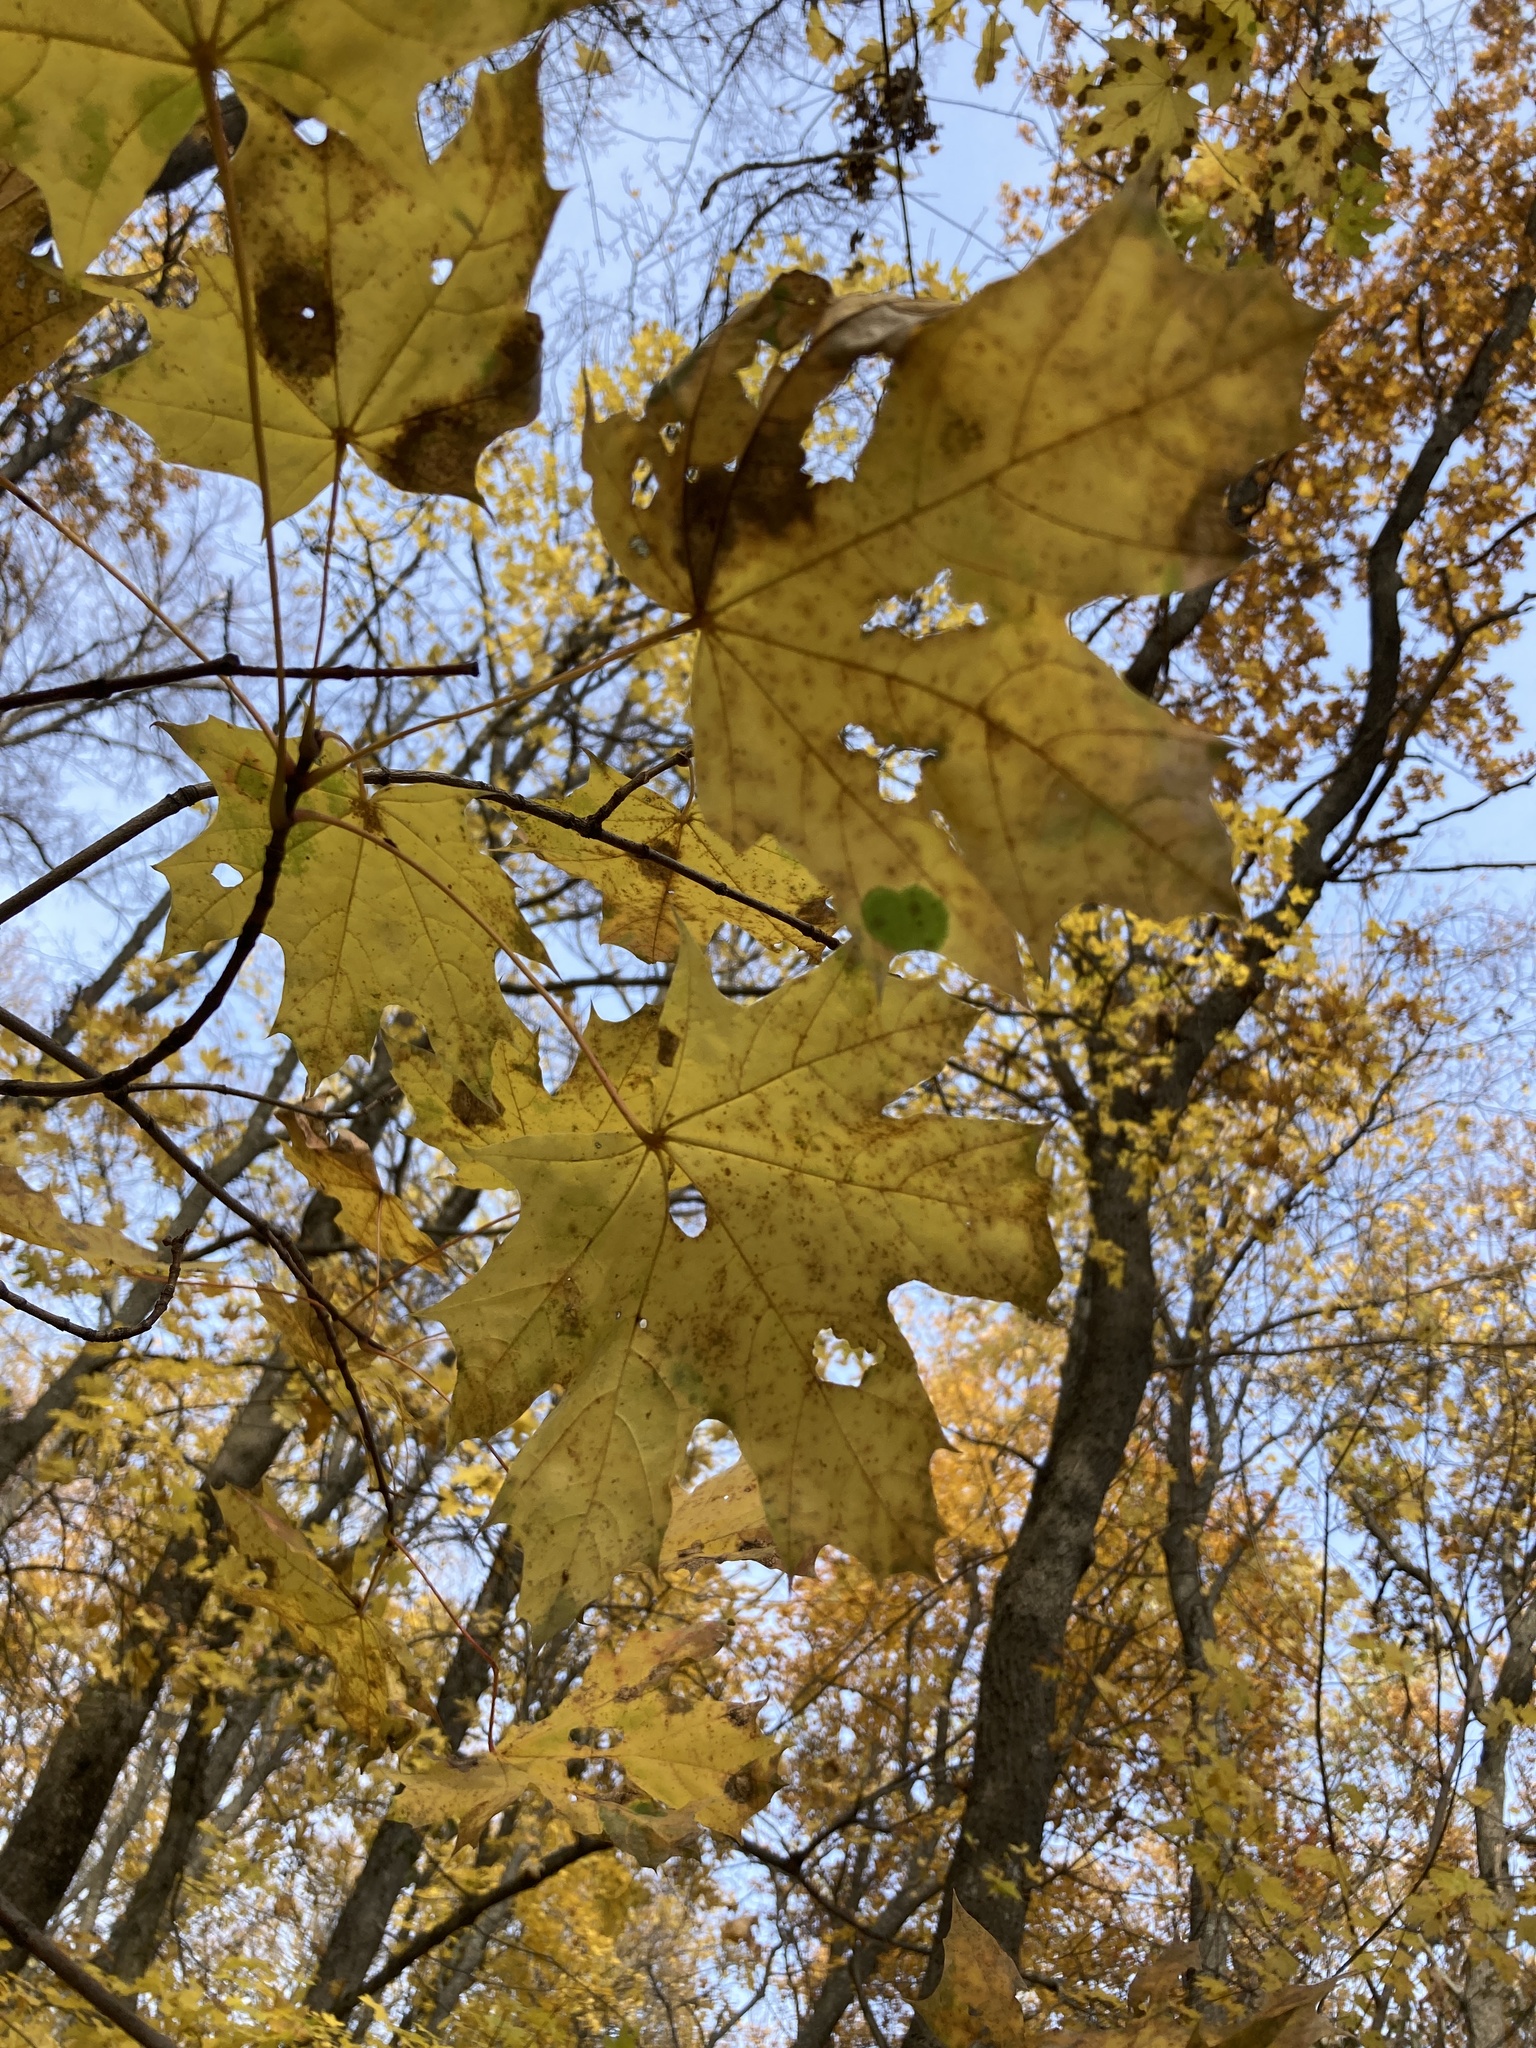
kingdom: Plantae
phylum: Tracheophyta
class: Magnoliopsida
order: Sapindales
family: Sapindaceae
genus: Acer
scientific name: Acer platanoides
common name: Norway maple
